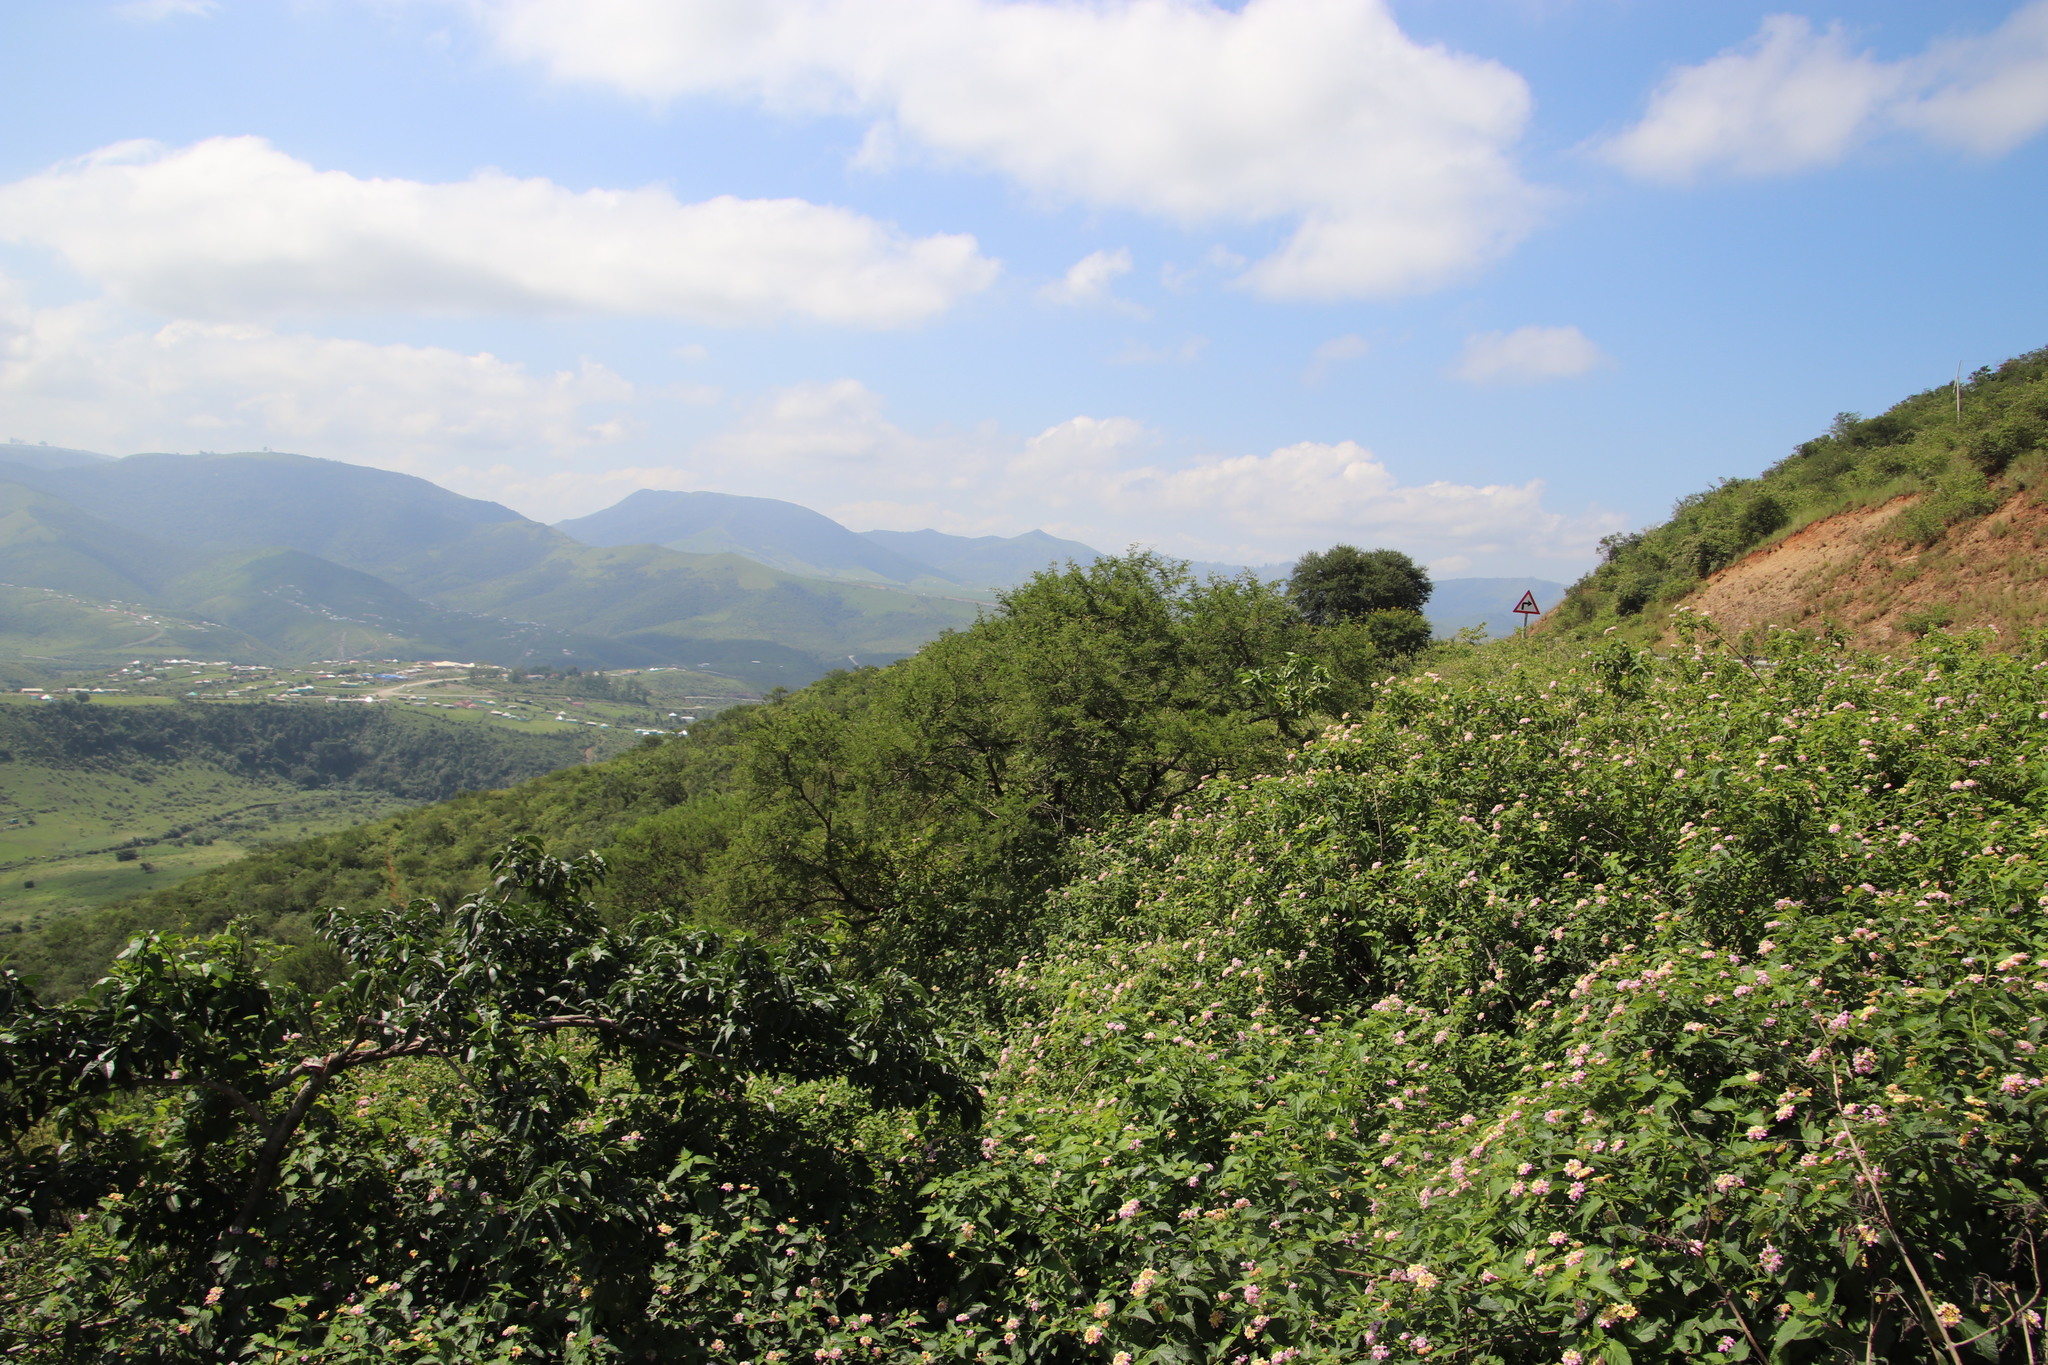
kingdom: Plantae
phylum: Tracheophyta
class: Magnoliopsida
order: Lamiales
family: Verbenaceae
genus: Lantana
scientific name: Lantana camara
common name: Lantana
